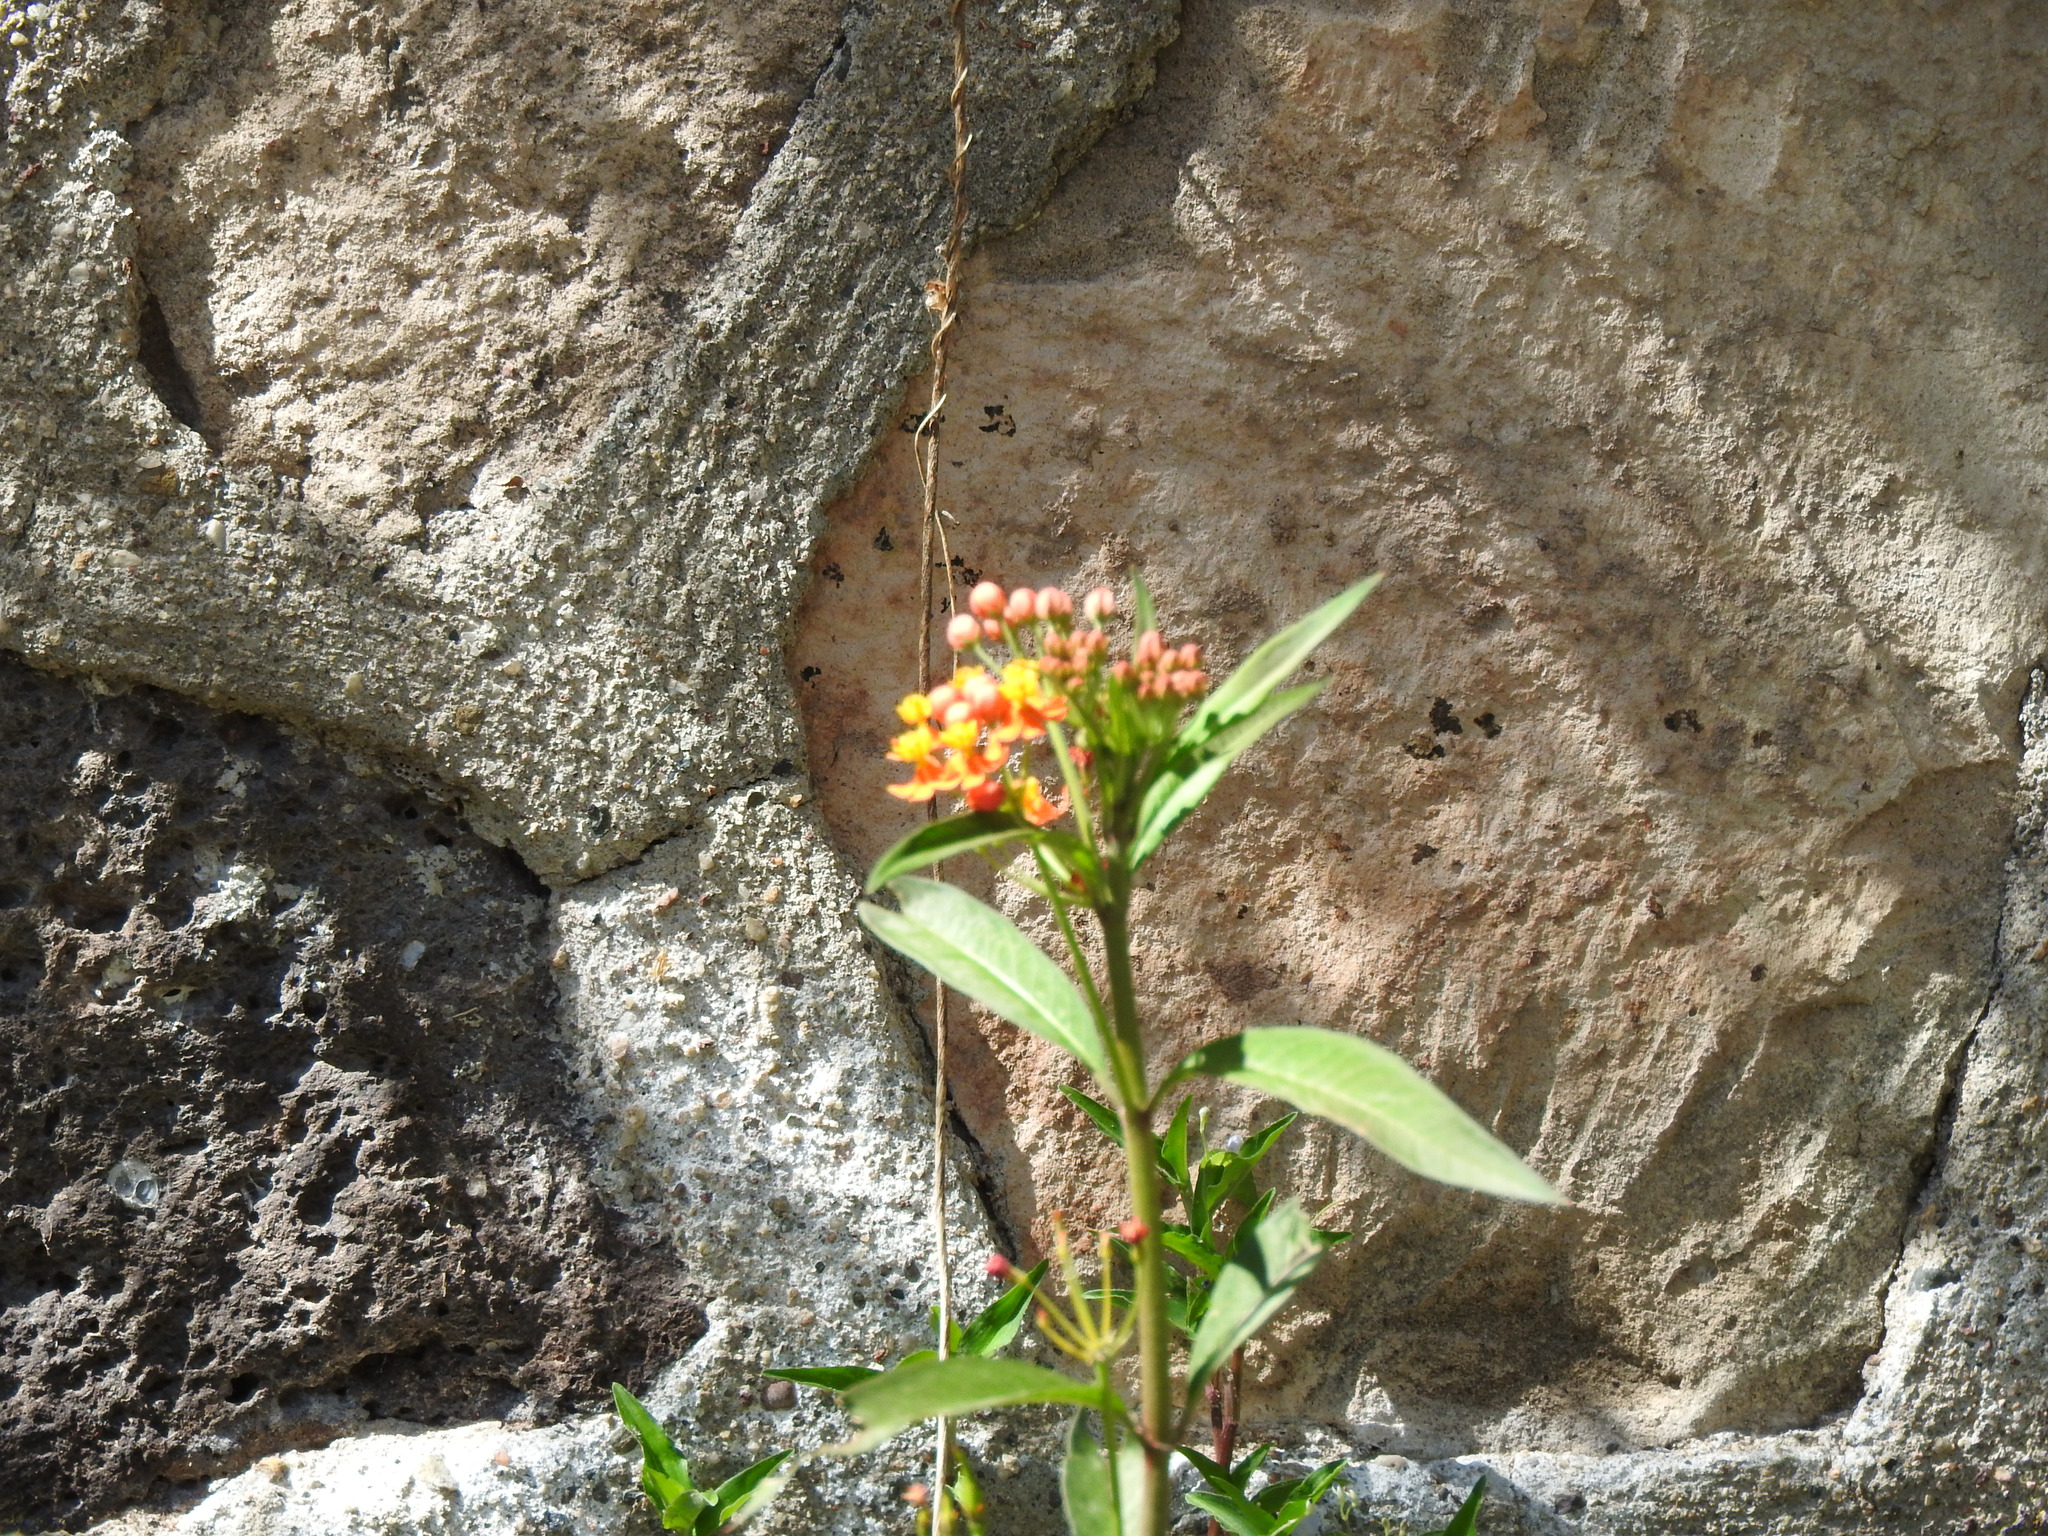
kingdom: Plantae
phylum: Tracheophyta
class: Magnoliopsida
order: Gentianales
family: Apocynaceae
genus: Asclepias
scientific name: Asclepias curassavica
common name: Bloodflower
